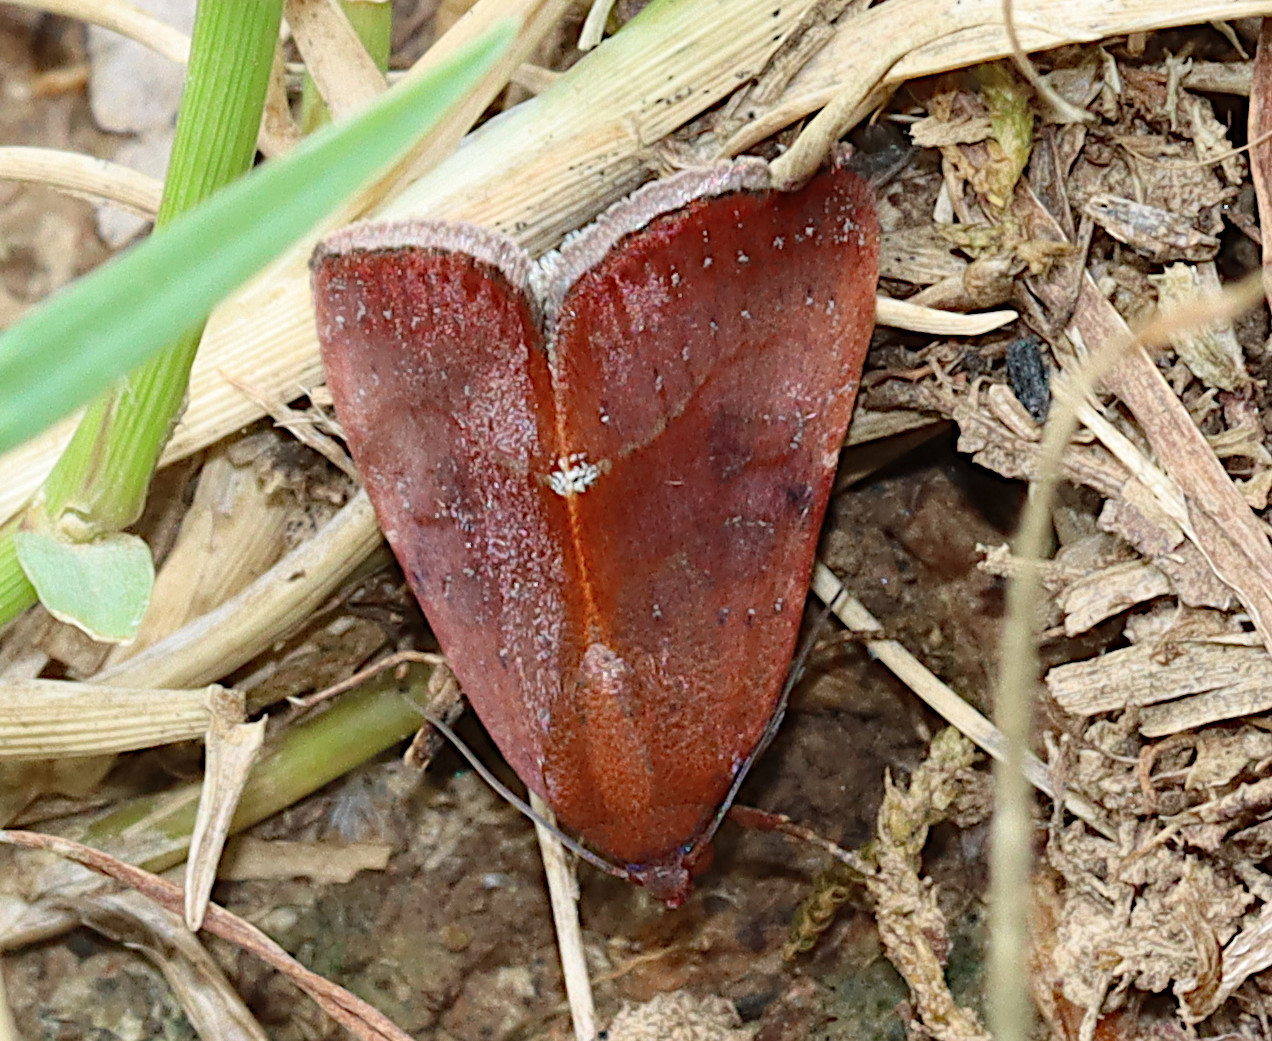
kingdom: Animalia
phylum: Arthropoda
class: Insecta
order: Lepidoptera
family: Noctuidae
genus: Galgula
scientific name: Galgula partita
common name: Wedgeling
